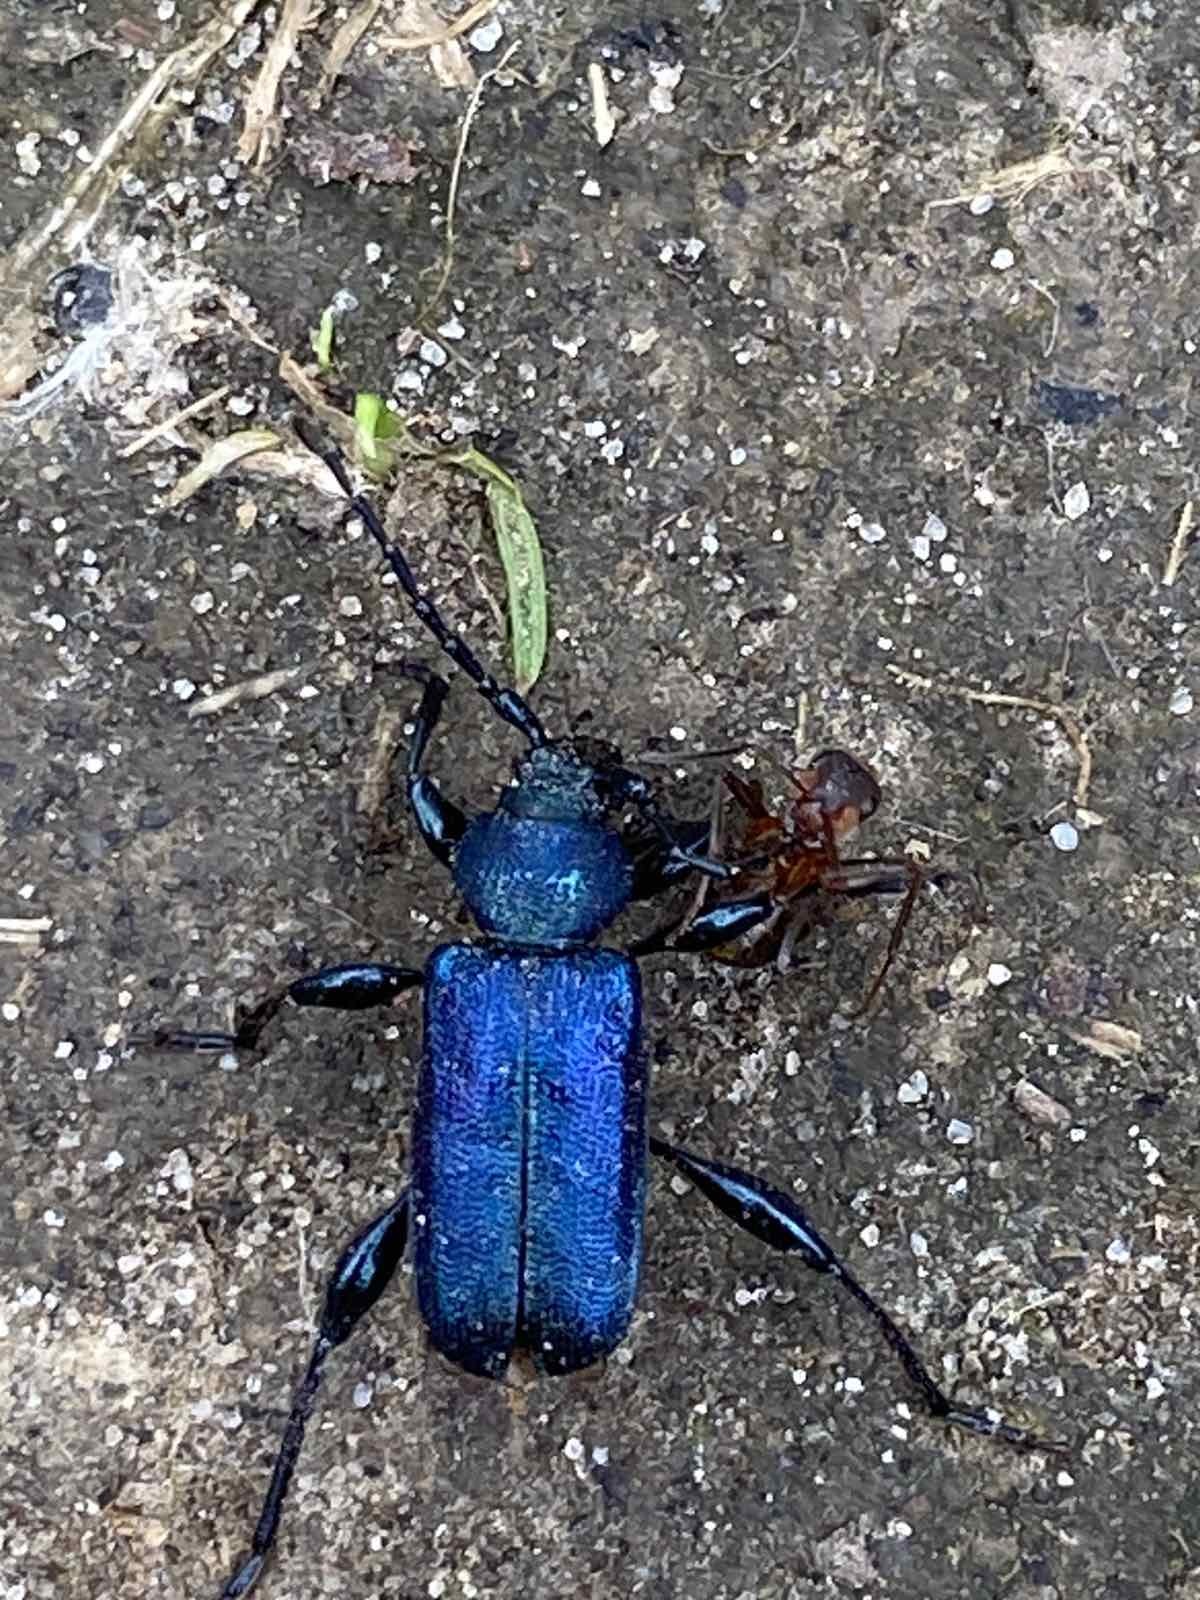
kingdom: Animalia
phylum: Arthropoda
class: Insecta
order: Coleoptera
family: Cerambycidae
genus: Callidium
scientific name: Callidium violaceum
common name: Violet tanbark beetle
